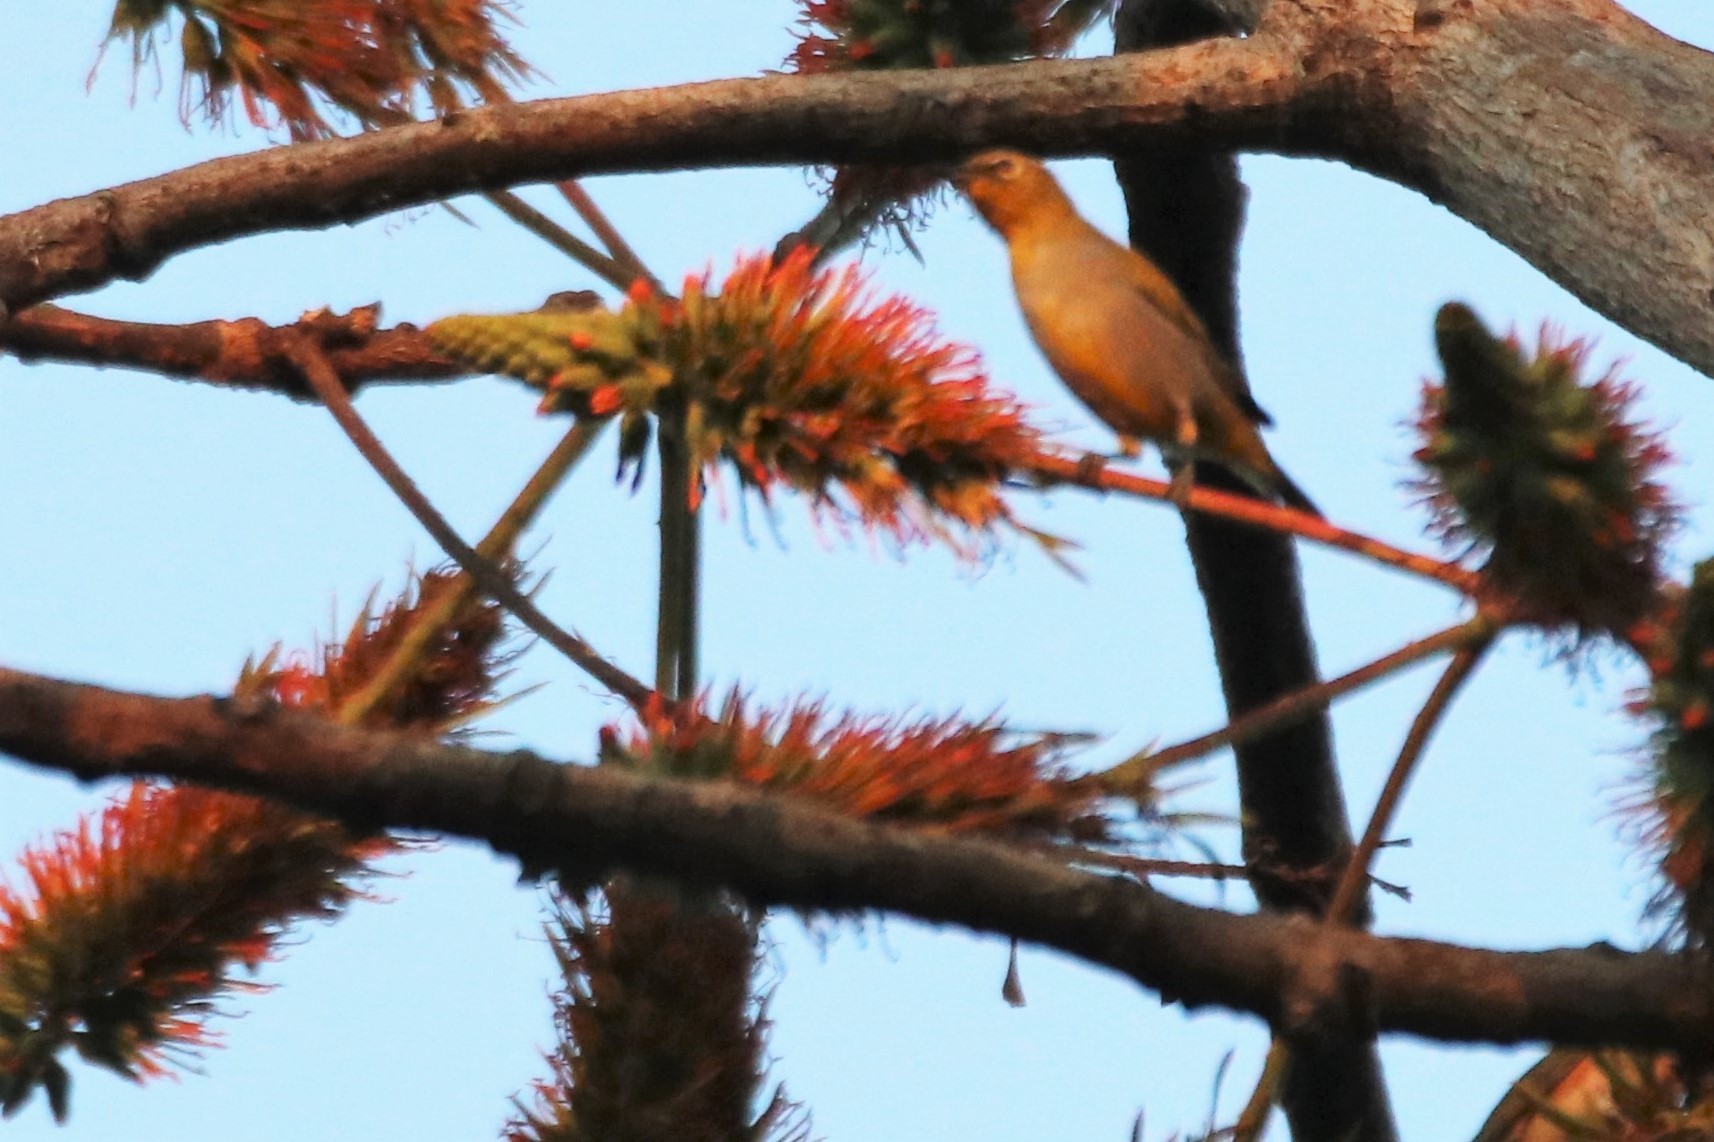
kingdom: Animalia
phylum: Chordata
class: Aves
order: Passeriformes
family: Zosteropidae
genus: Zosterops
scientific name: Zosterops auriventer
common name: Hume's white-eye
